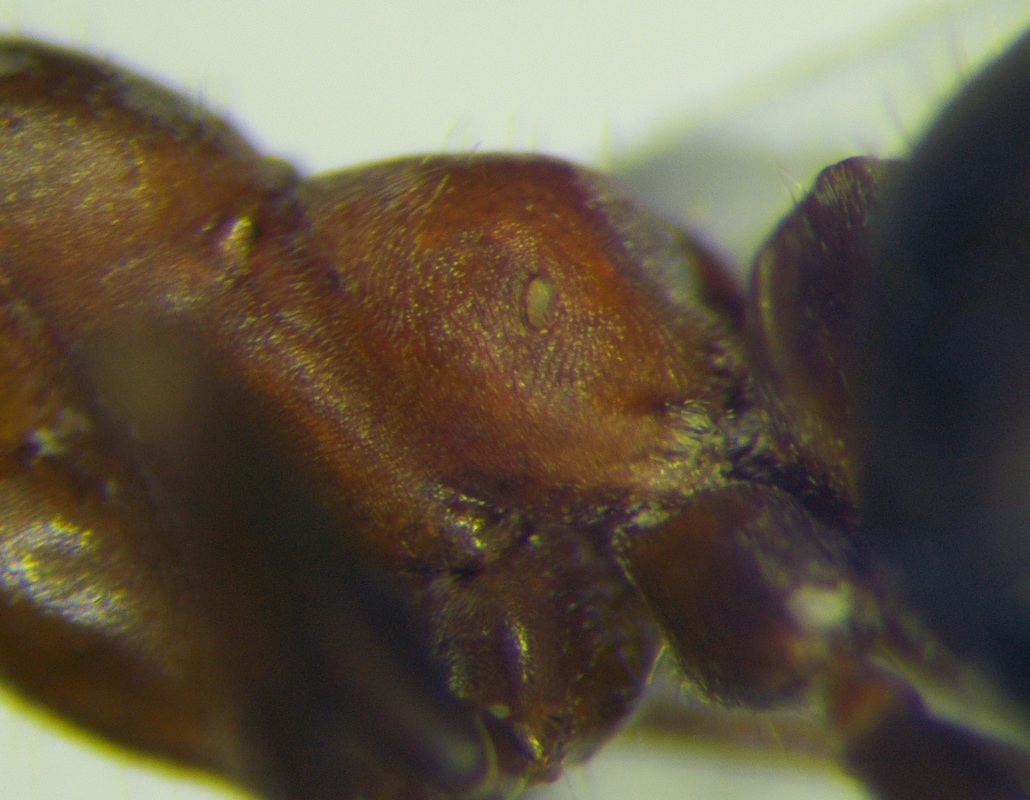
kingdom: Animalia
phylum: Arthropoda
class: Insecta
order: Hymenoptera
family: Formicidae
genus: Formica
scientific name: Formica subpilosa
